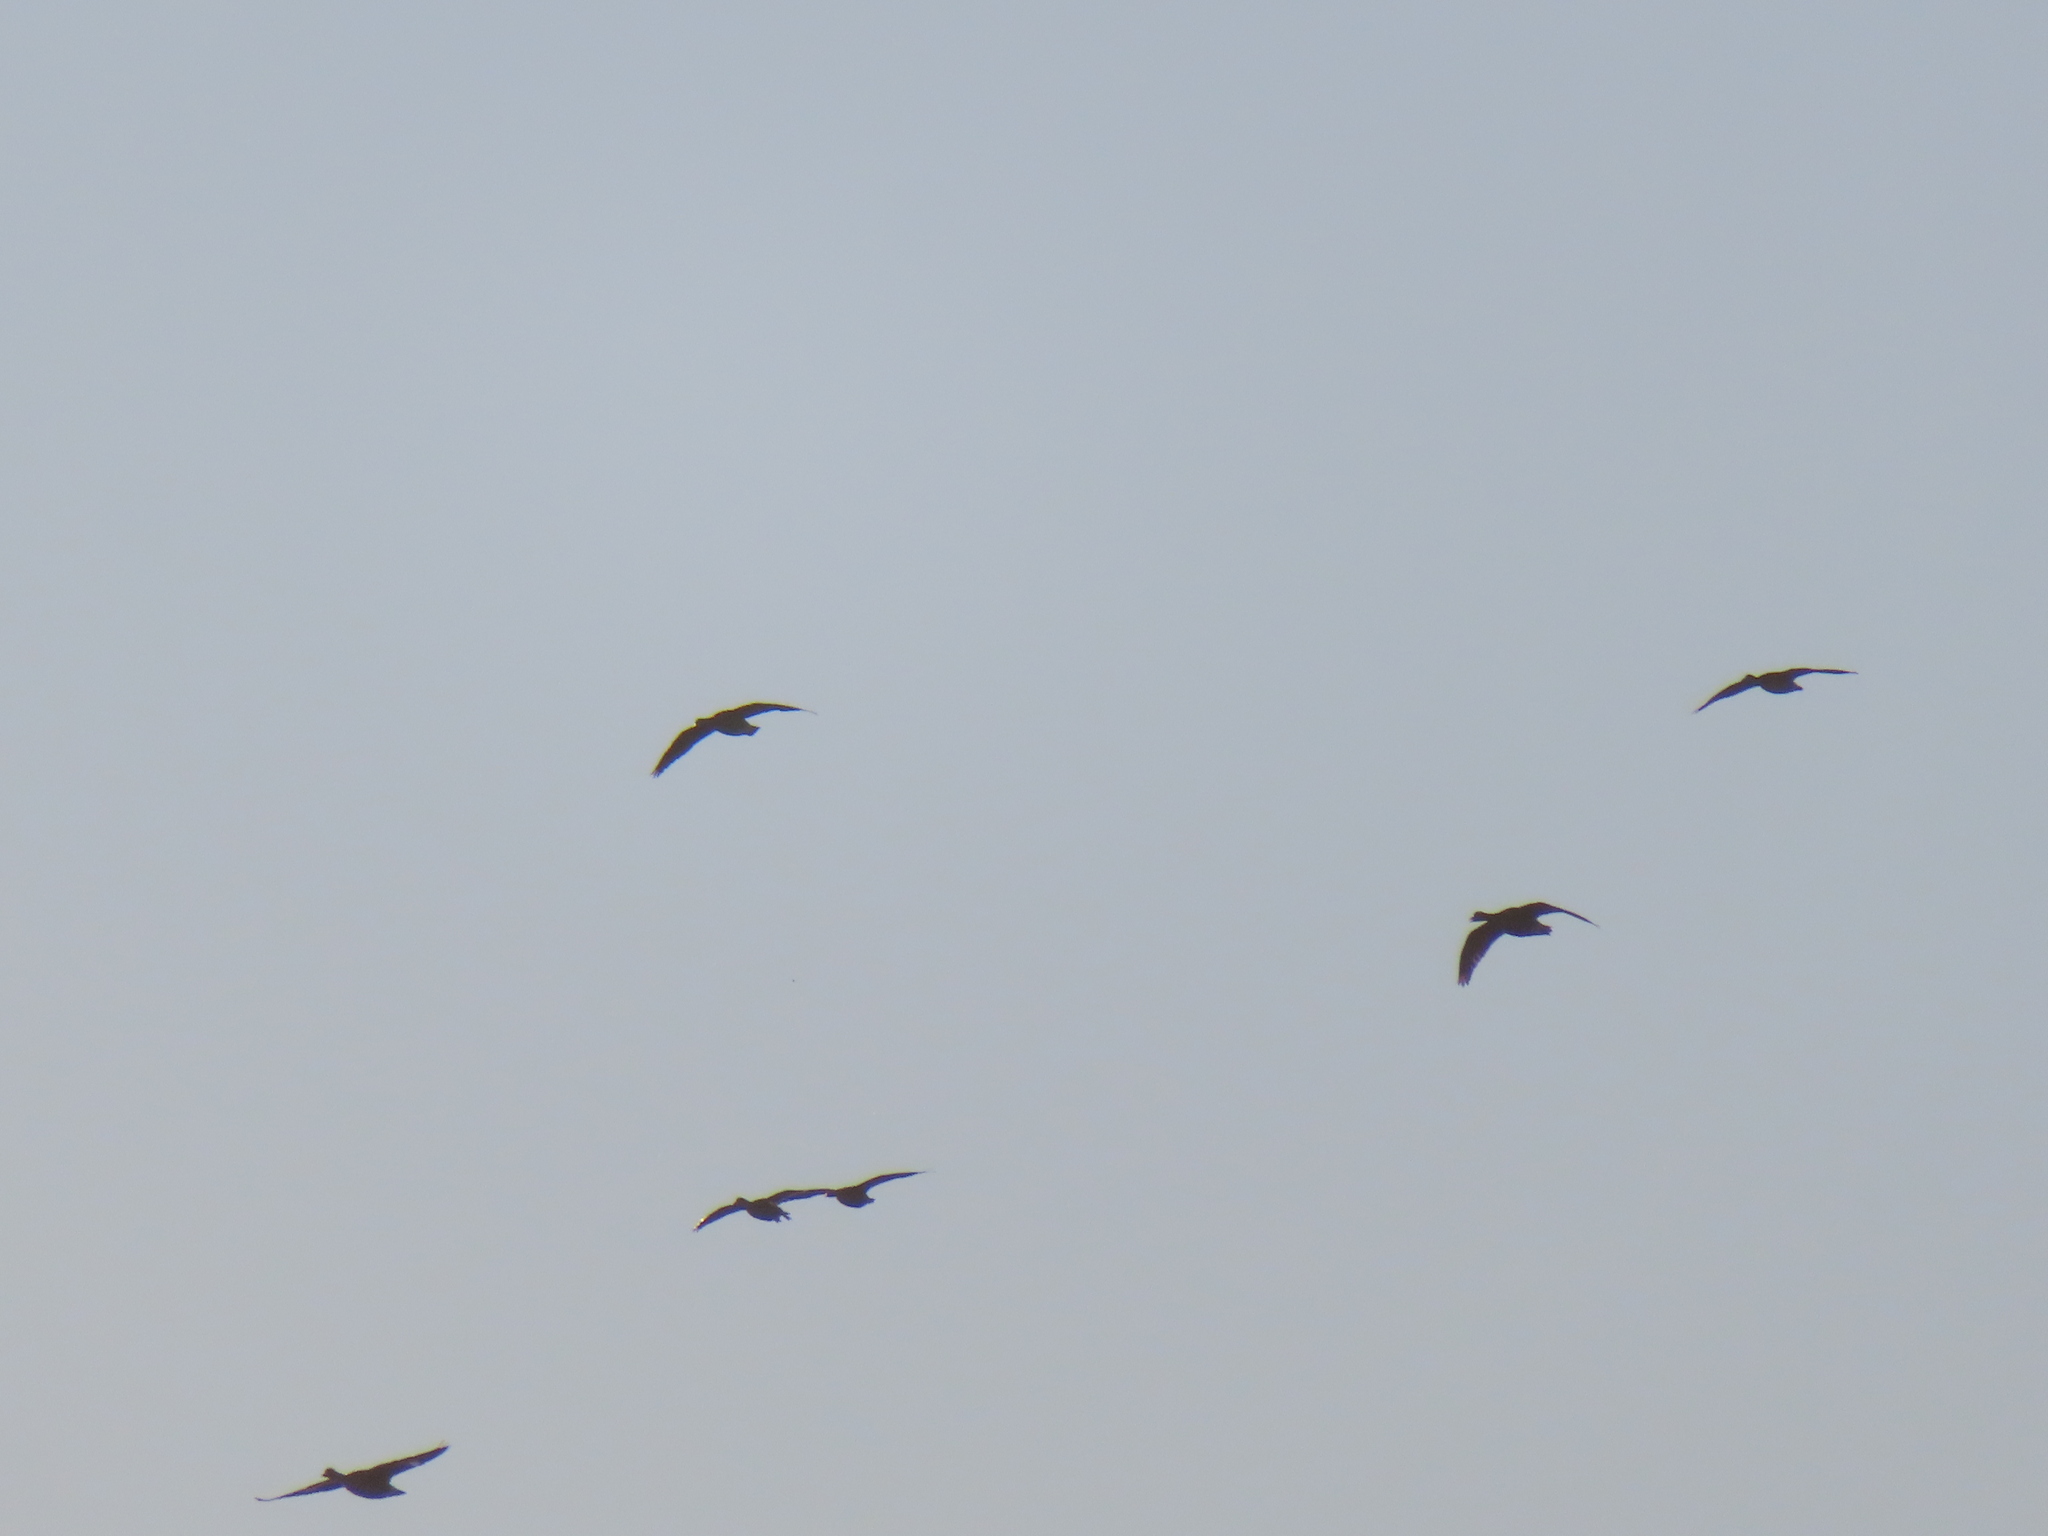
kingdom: Animalia
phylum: Chordata
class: Aves
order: Anseriformes
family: Anatidae
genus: Anser
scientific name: Anser caerulescens
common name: Snow goose
